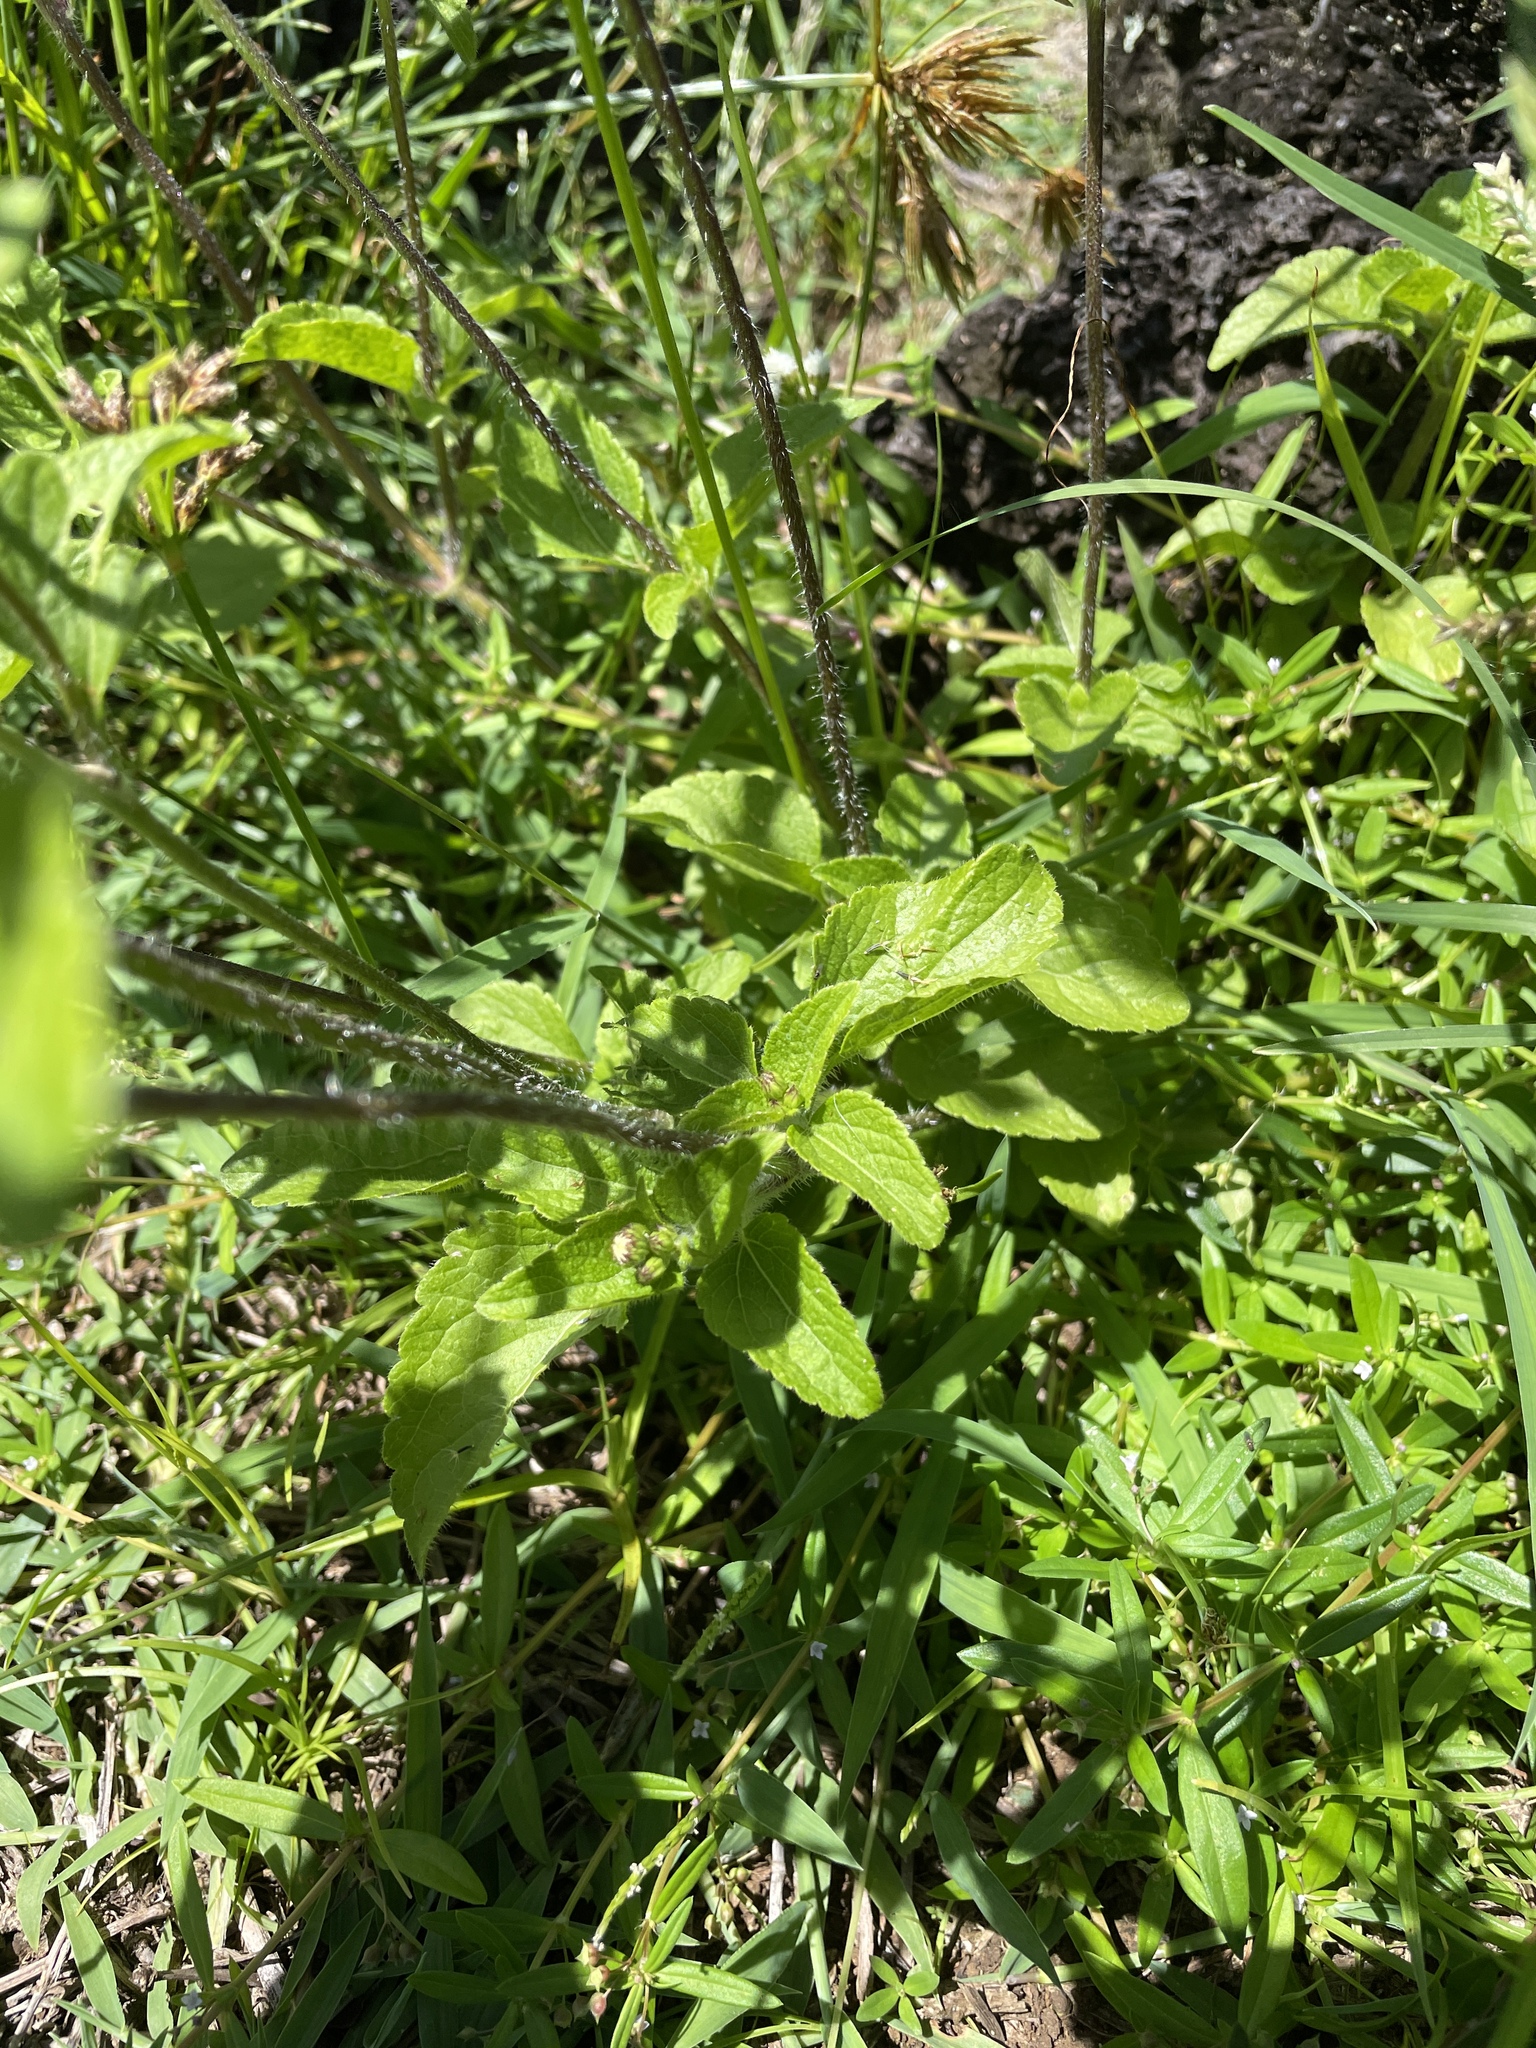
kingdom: Plantae
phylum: Tracheophyta
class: Magnoliopsida
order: Asterales
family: Asteraceae
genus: Ageratum
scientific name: Ageratum conyzoides
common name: Tropical whiteweed
